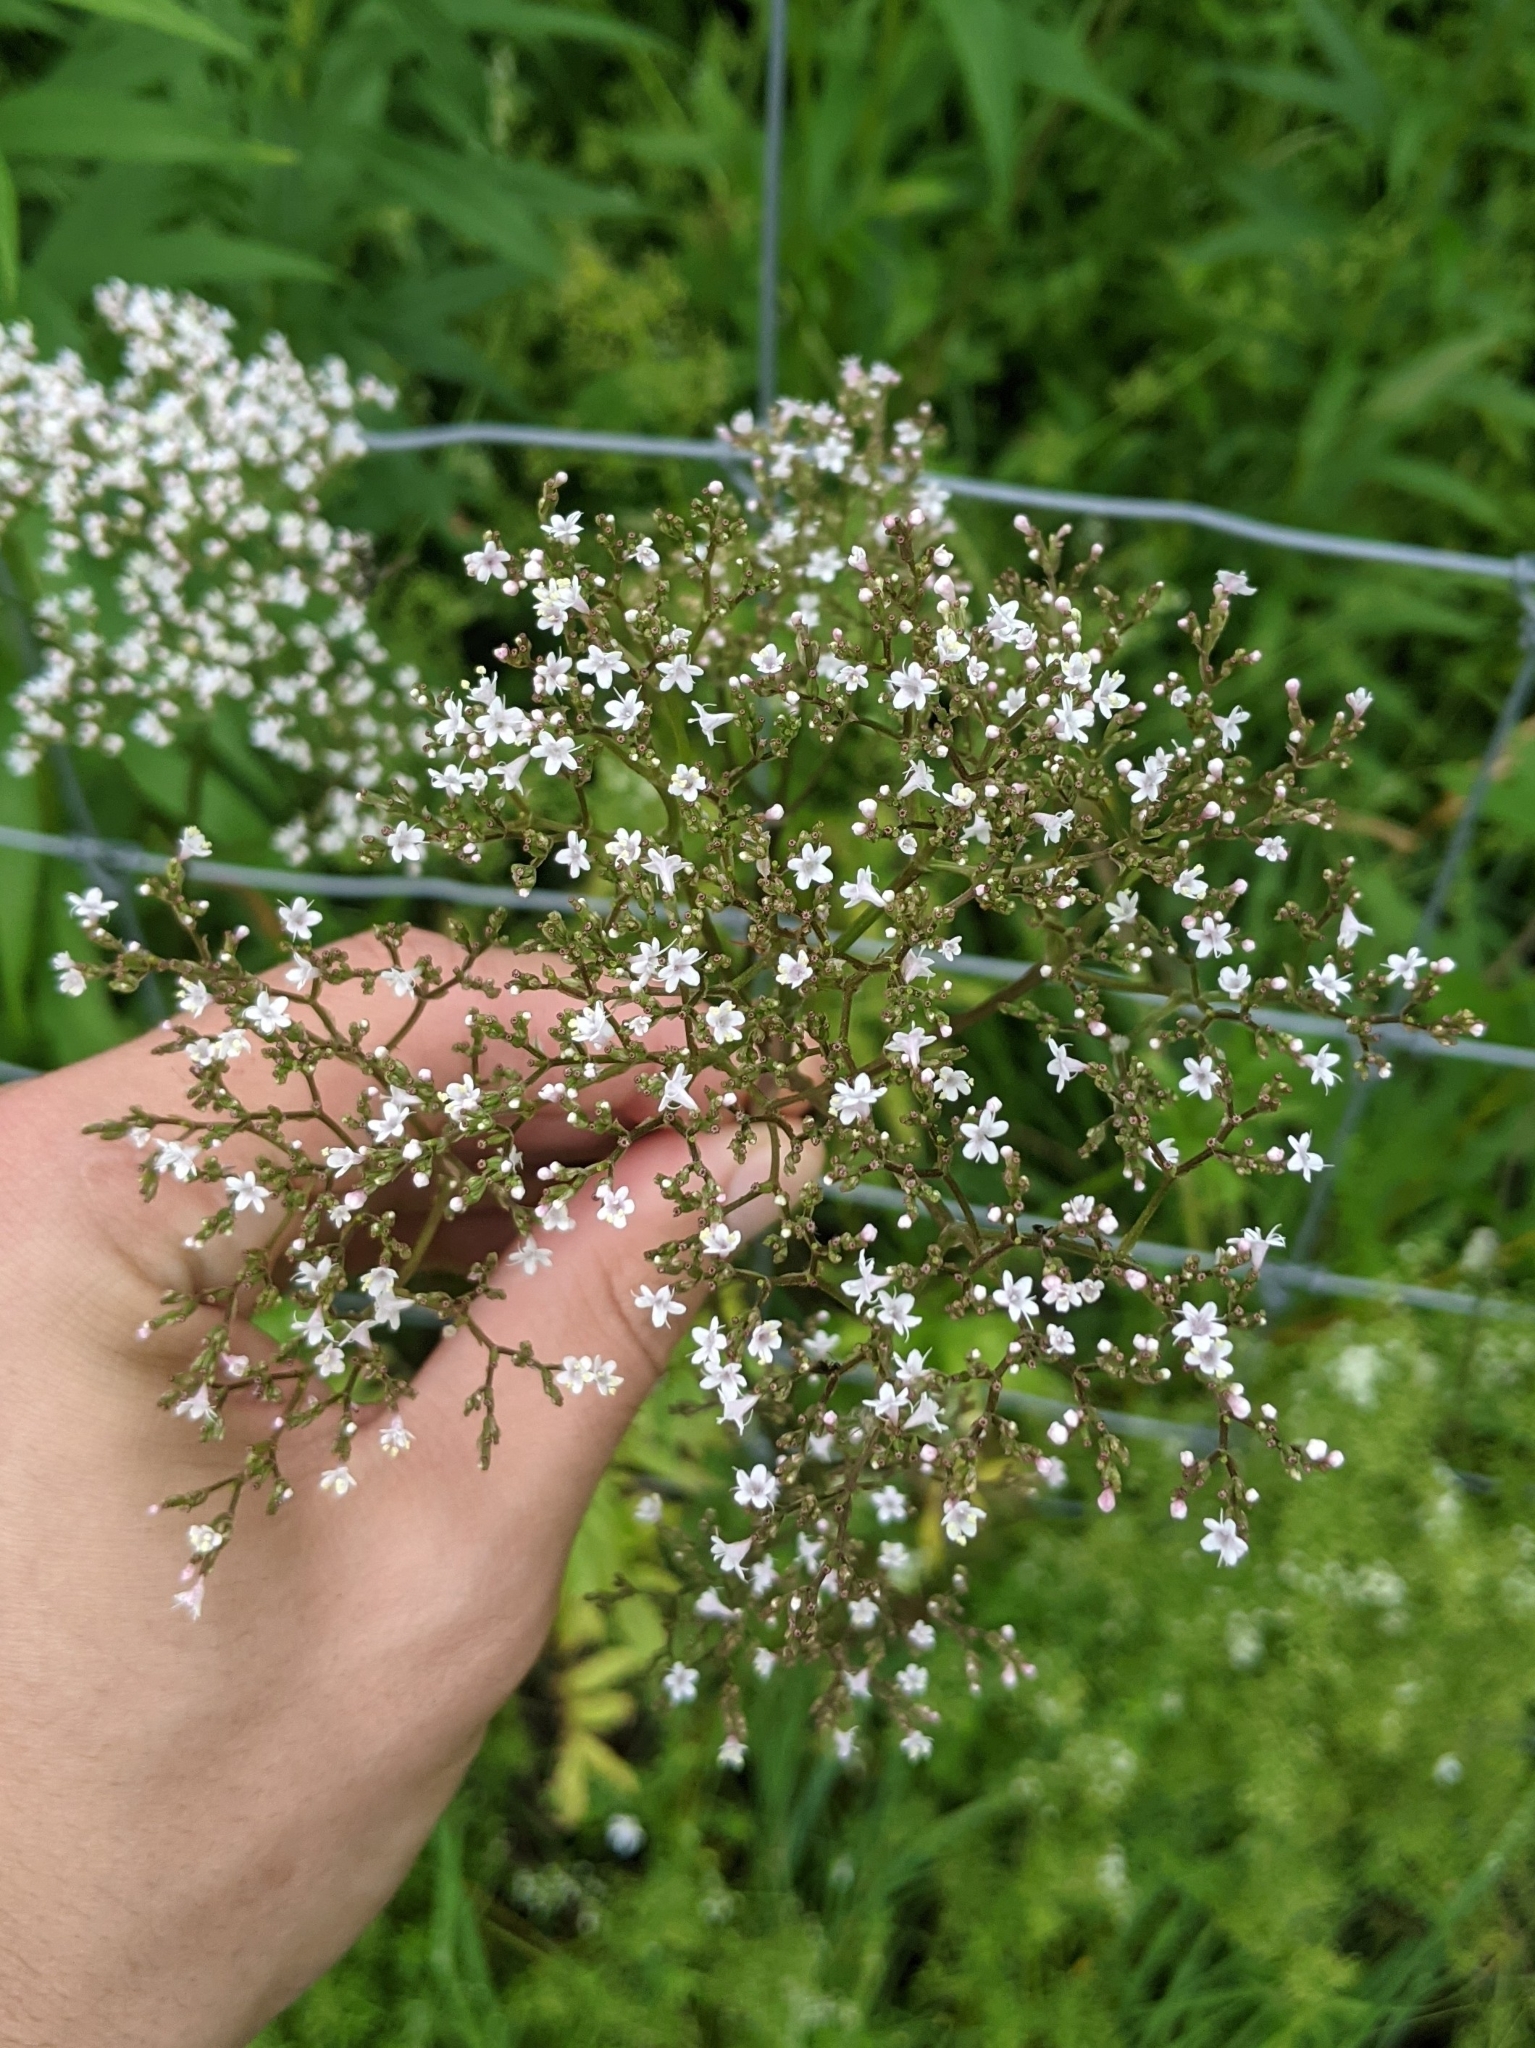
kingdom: Plantae
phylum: Tracheophyta
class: Magnoliopsida
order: Dipsacales
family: Caprifoliaceae
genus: Valeriana
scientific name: Valeriana officinalis
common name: Common valerian
